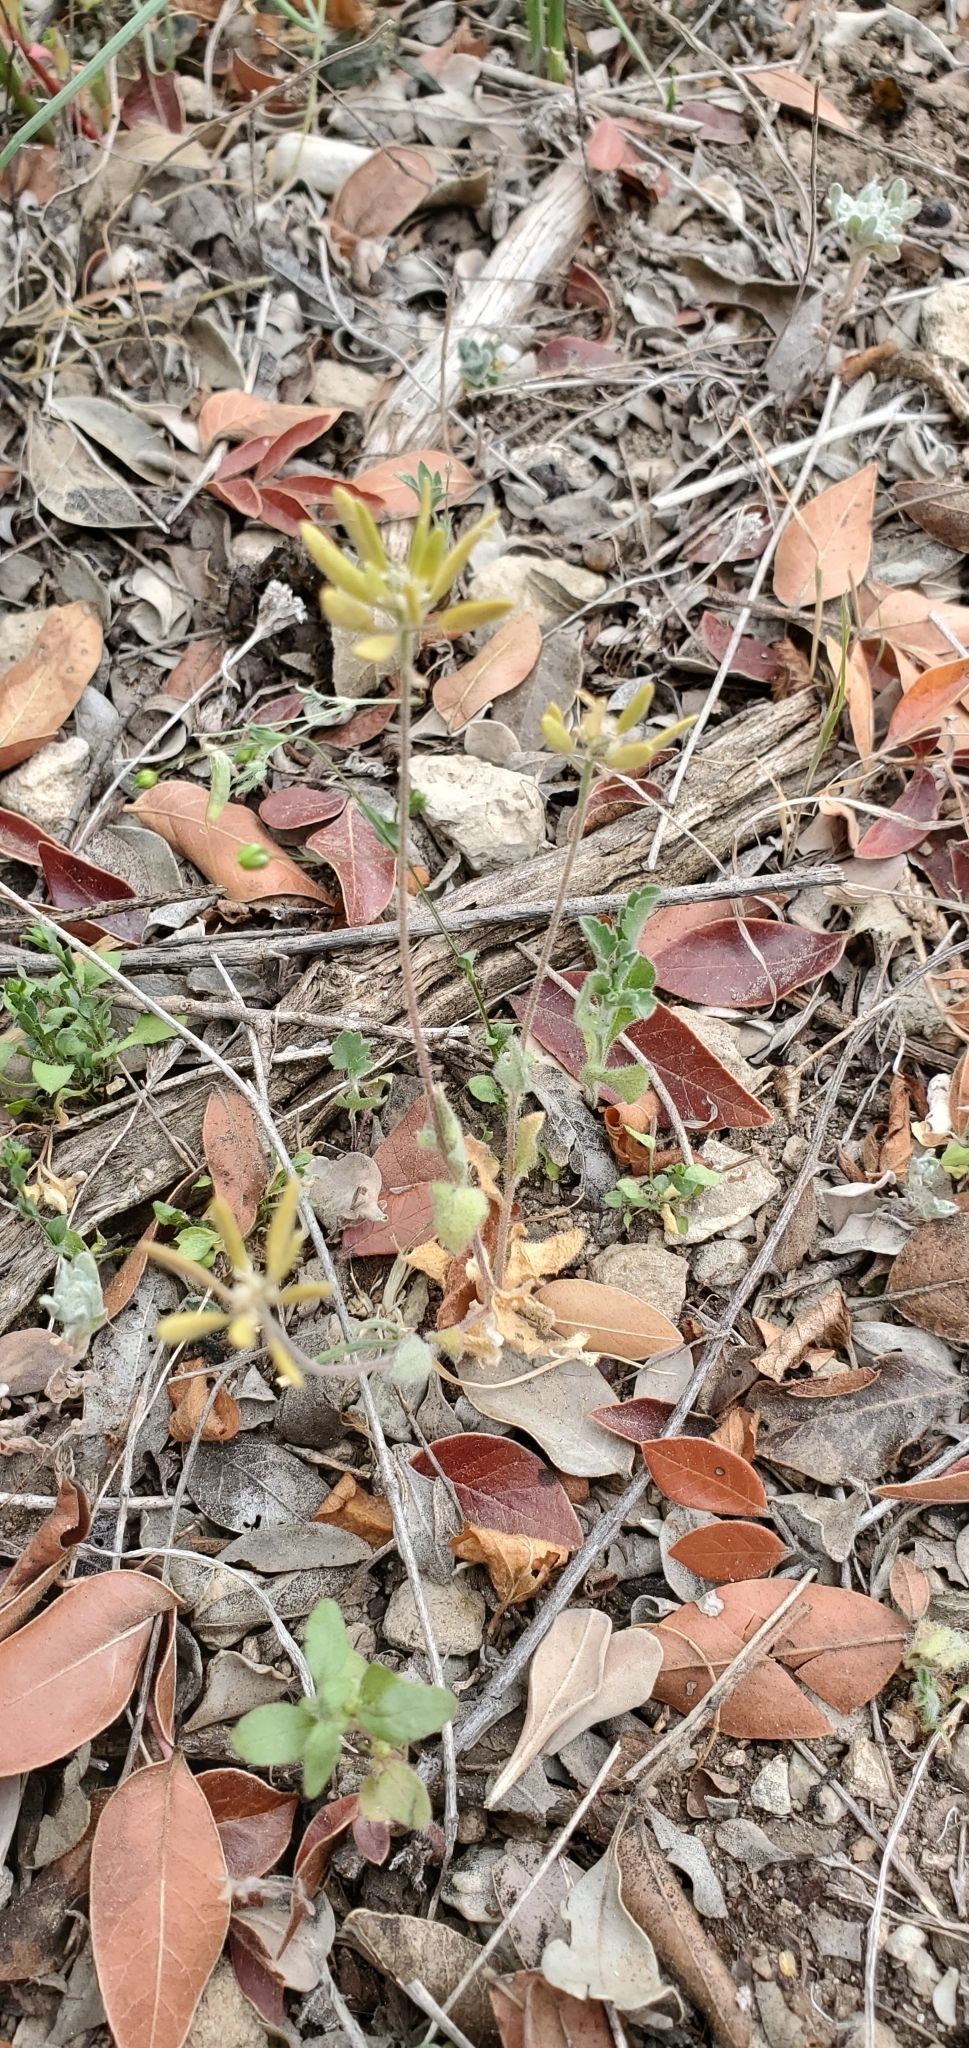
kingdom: Plantae
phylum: Tracheophyta
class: Magnoliopsida
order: Brassicales
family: Brassicaceae
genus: Tomostima
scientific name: Tomostima cuneifolia
